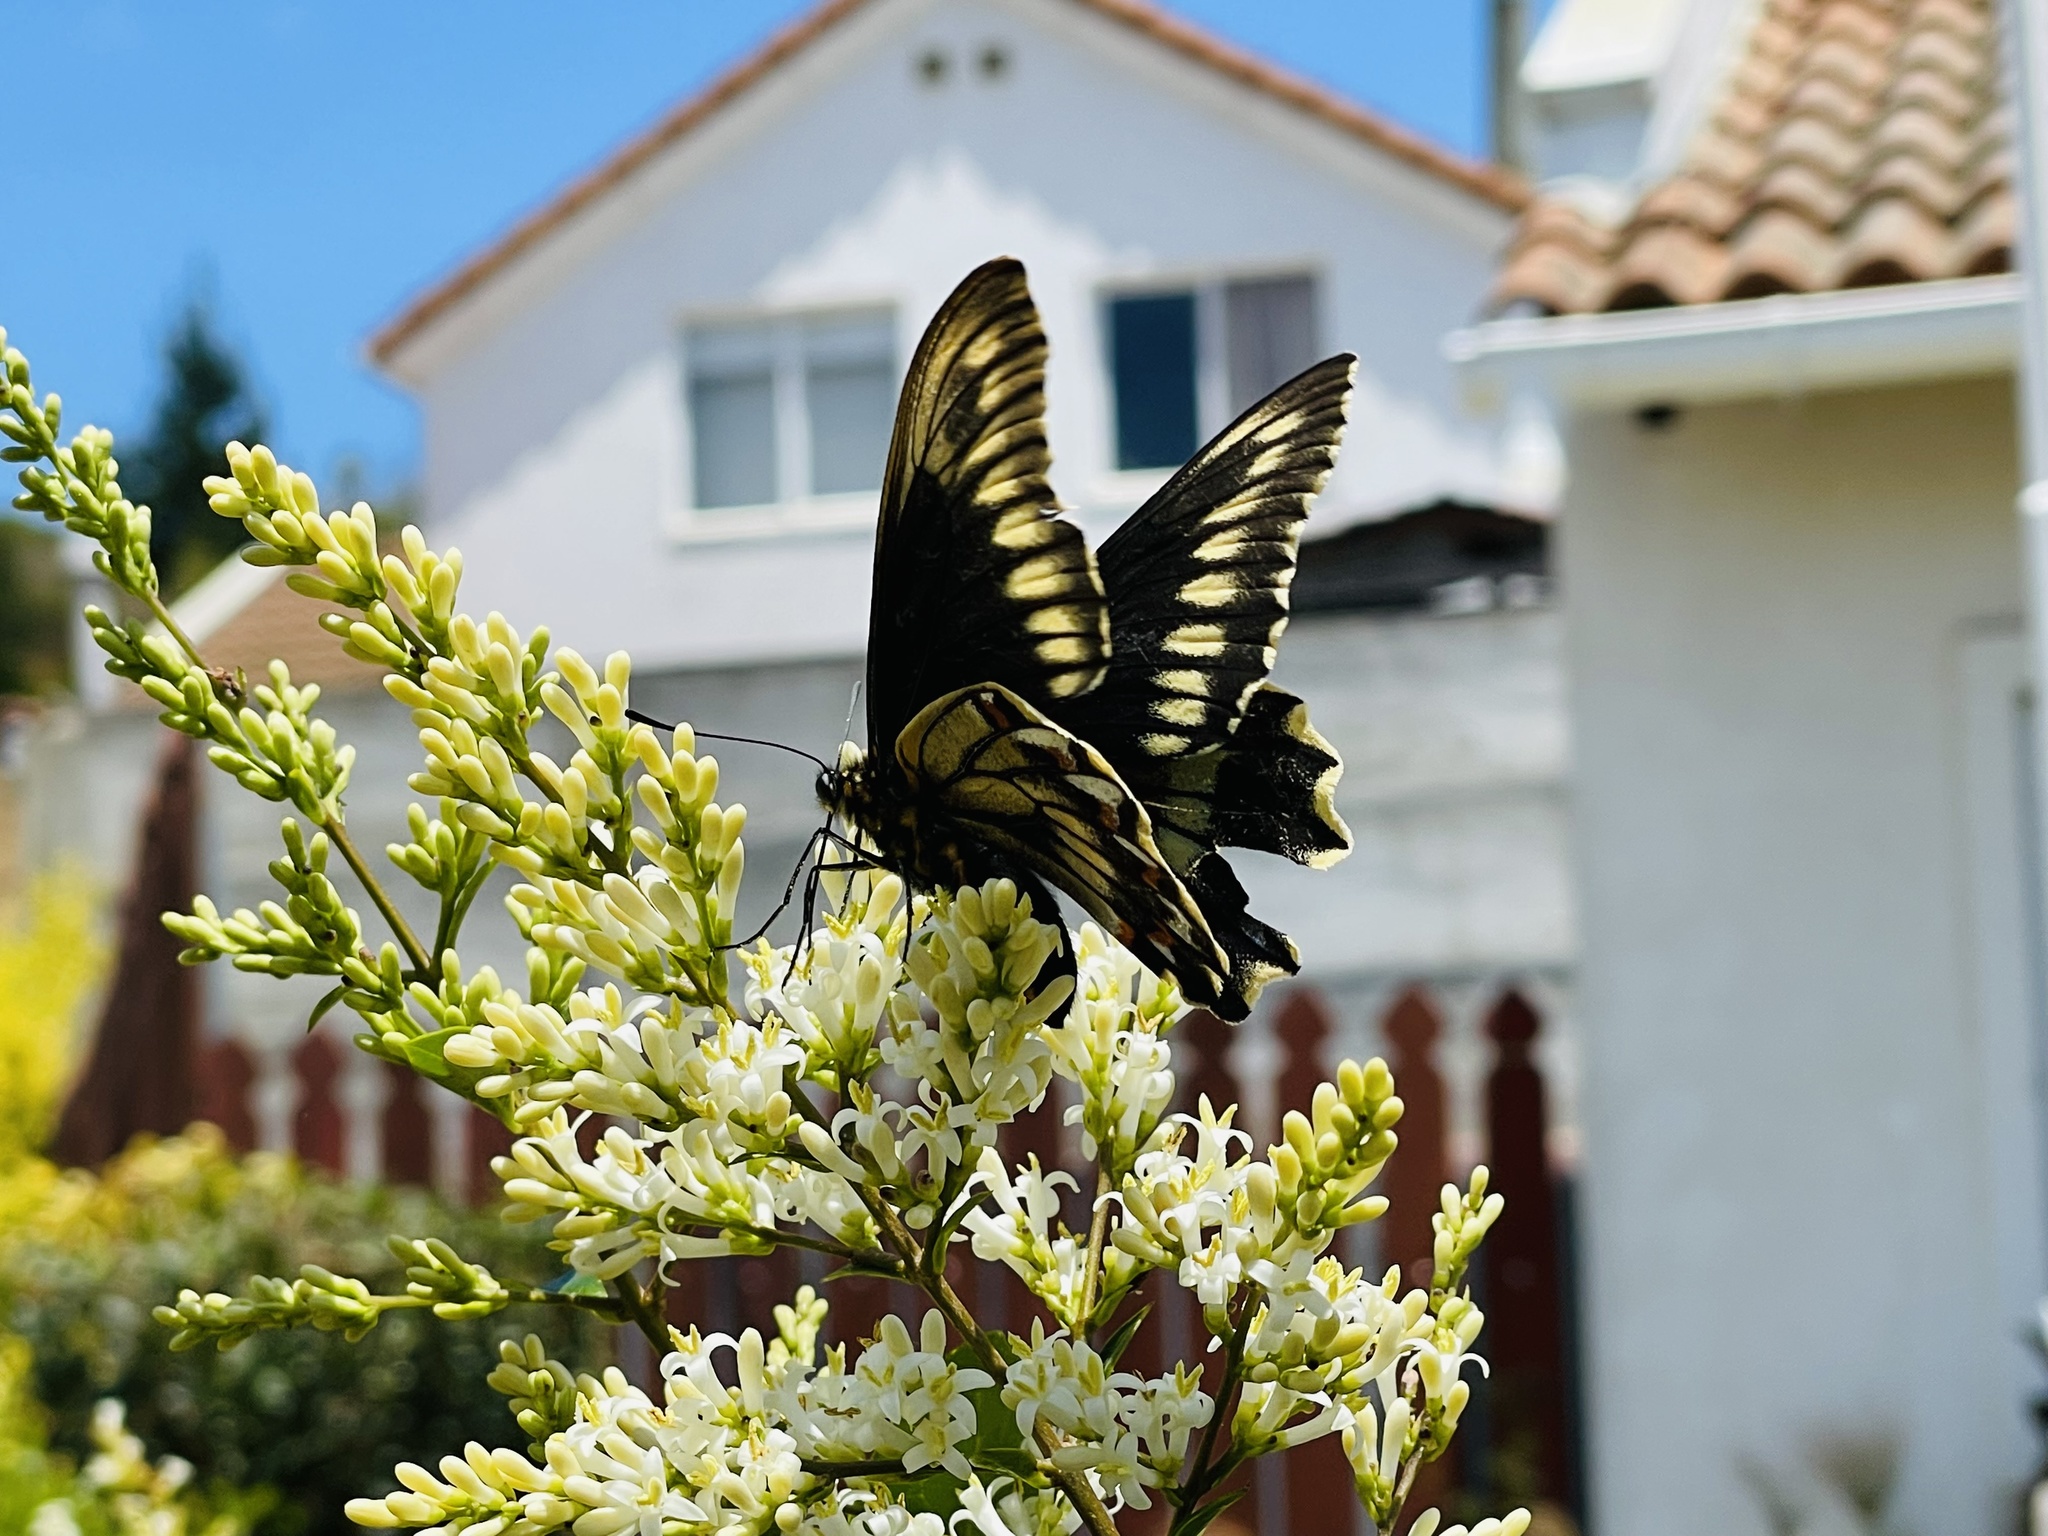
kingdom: Animalia
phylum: Arthropoda
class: Insecta
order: Lepidoptera
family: Papilionidae
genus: Battus
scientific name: Battus polydamas
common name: Polydamas swallowtail
